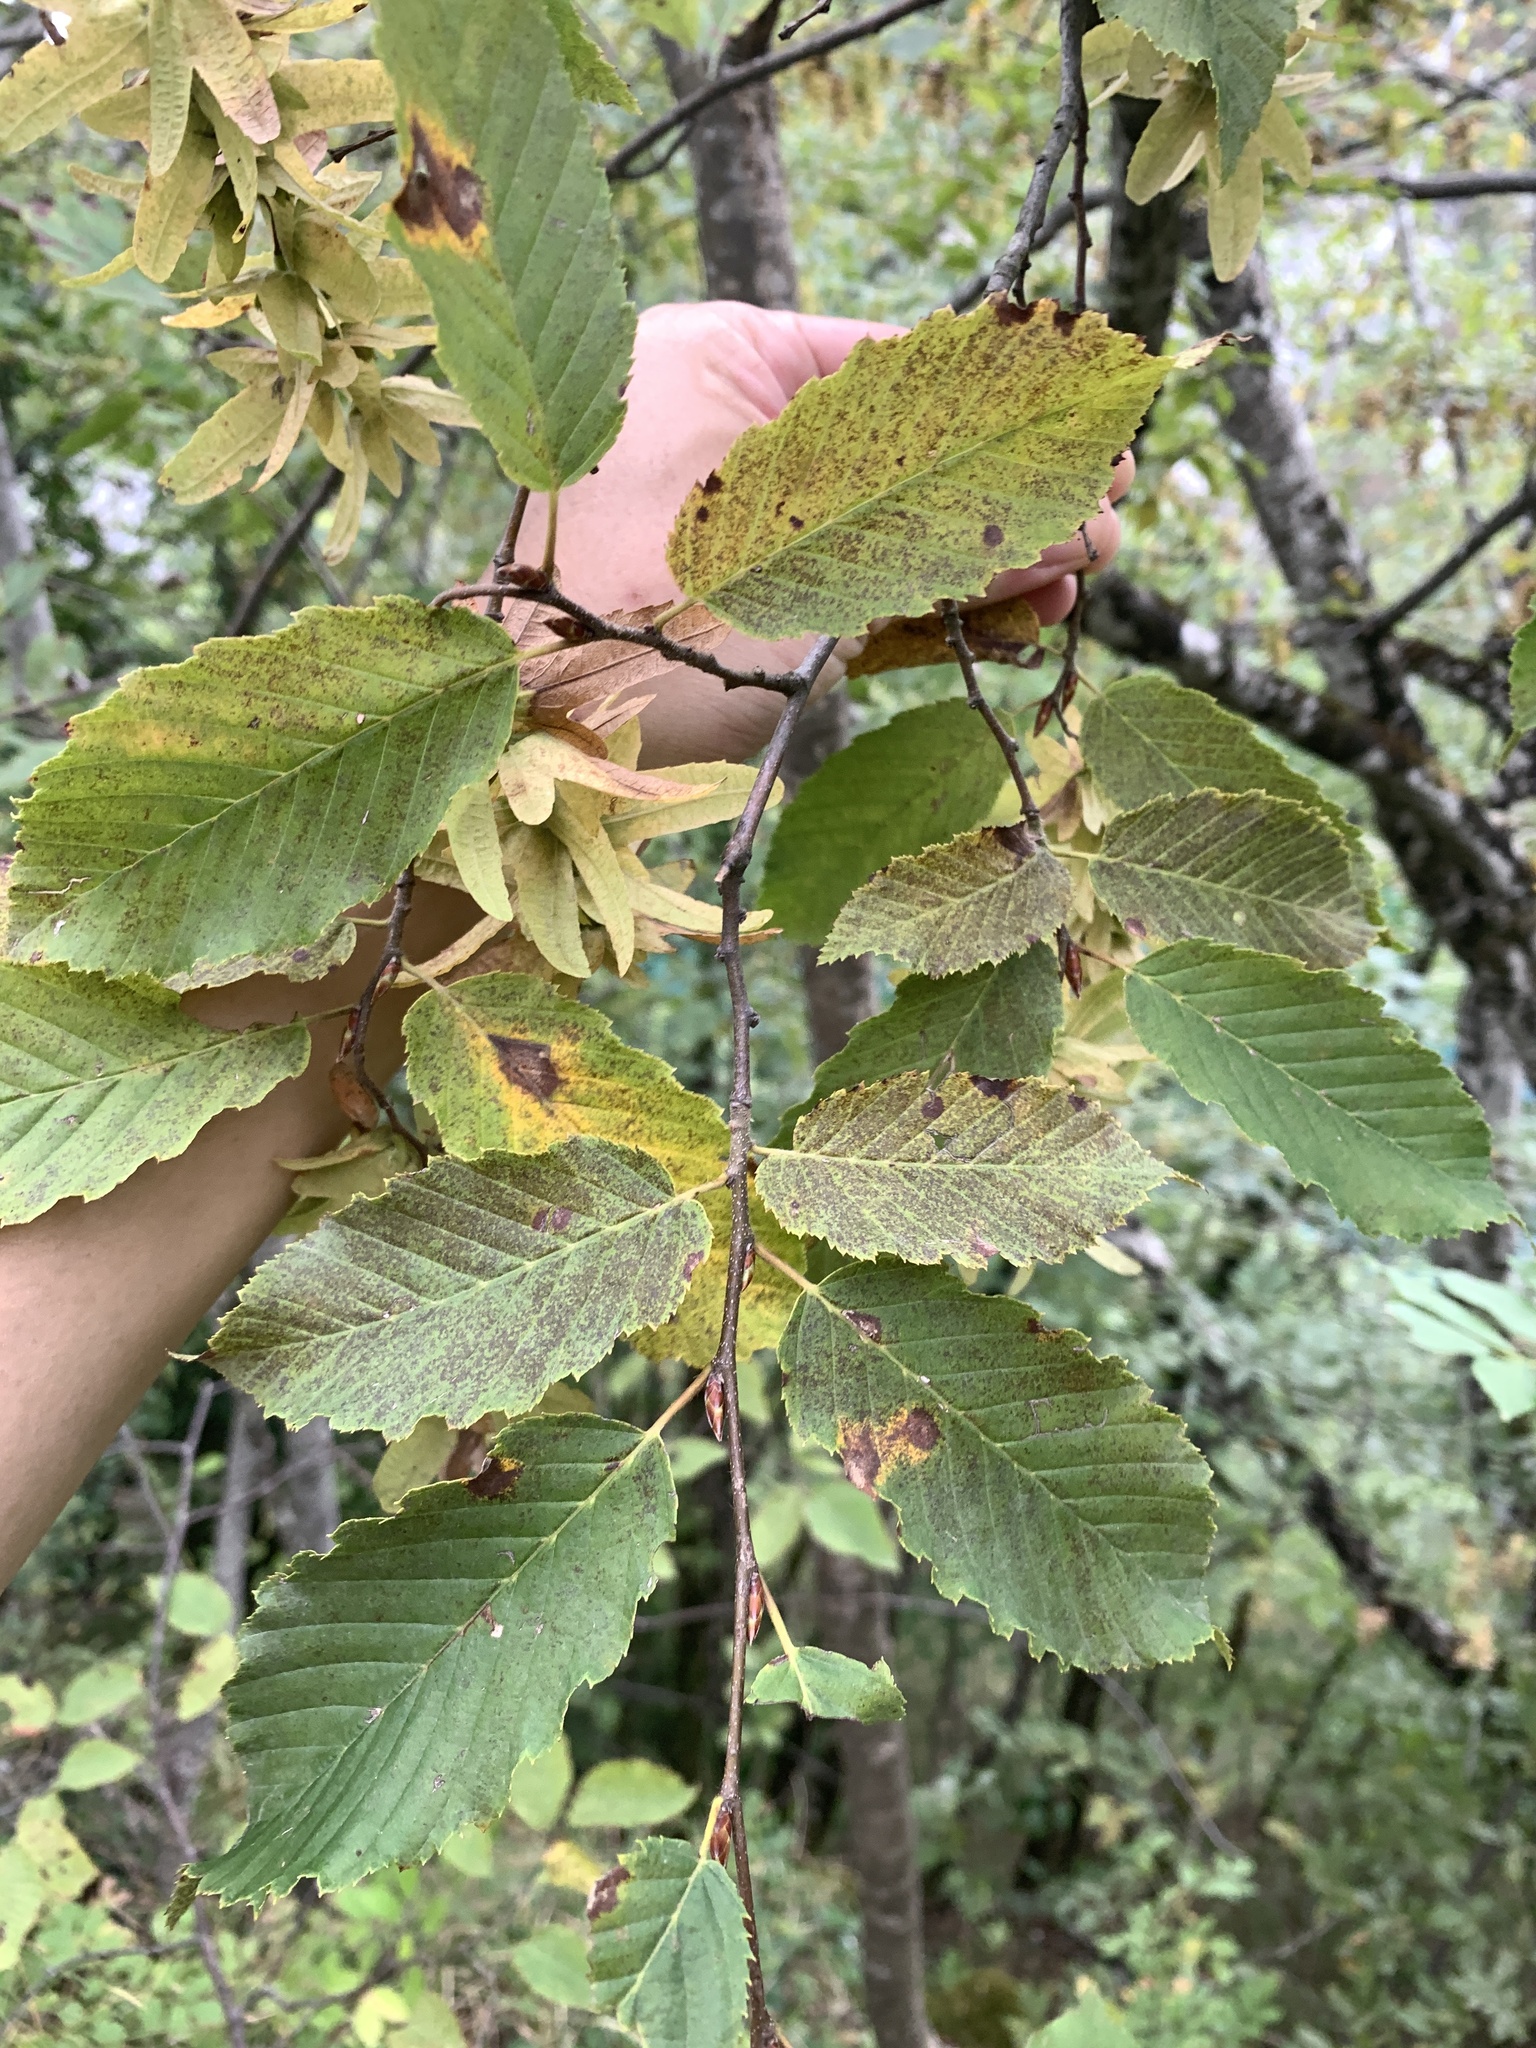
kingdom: Plantae
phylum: Tracheophyta
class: Magnoliopsida
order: Fagales
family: Betulaceae
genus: Carpinus
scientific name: Carpinus betulus
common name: Hornbeam
